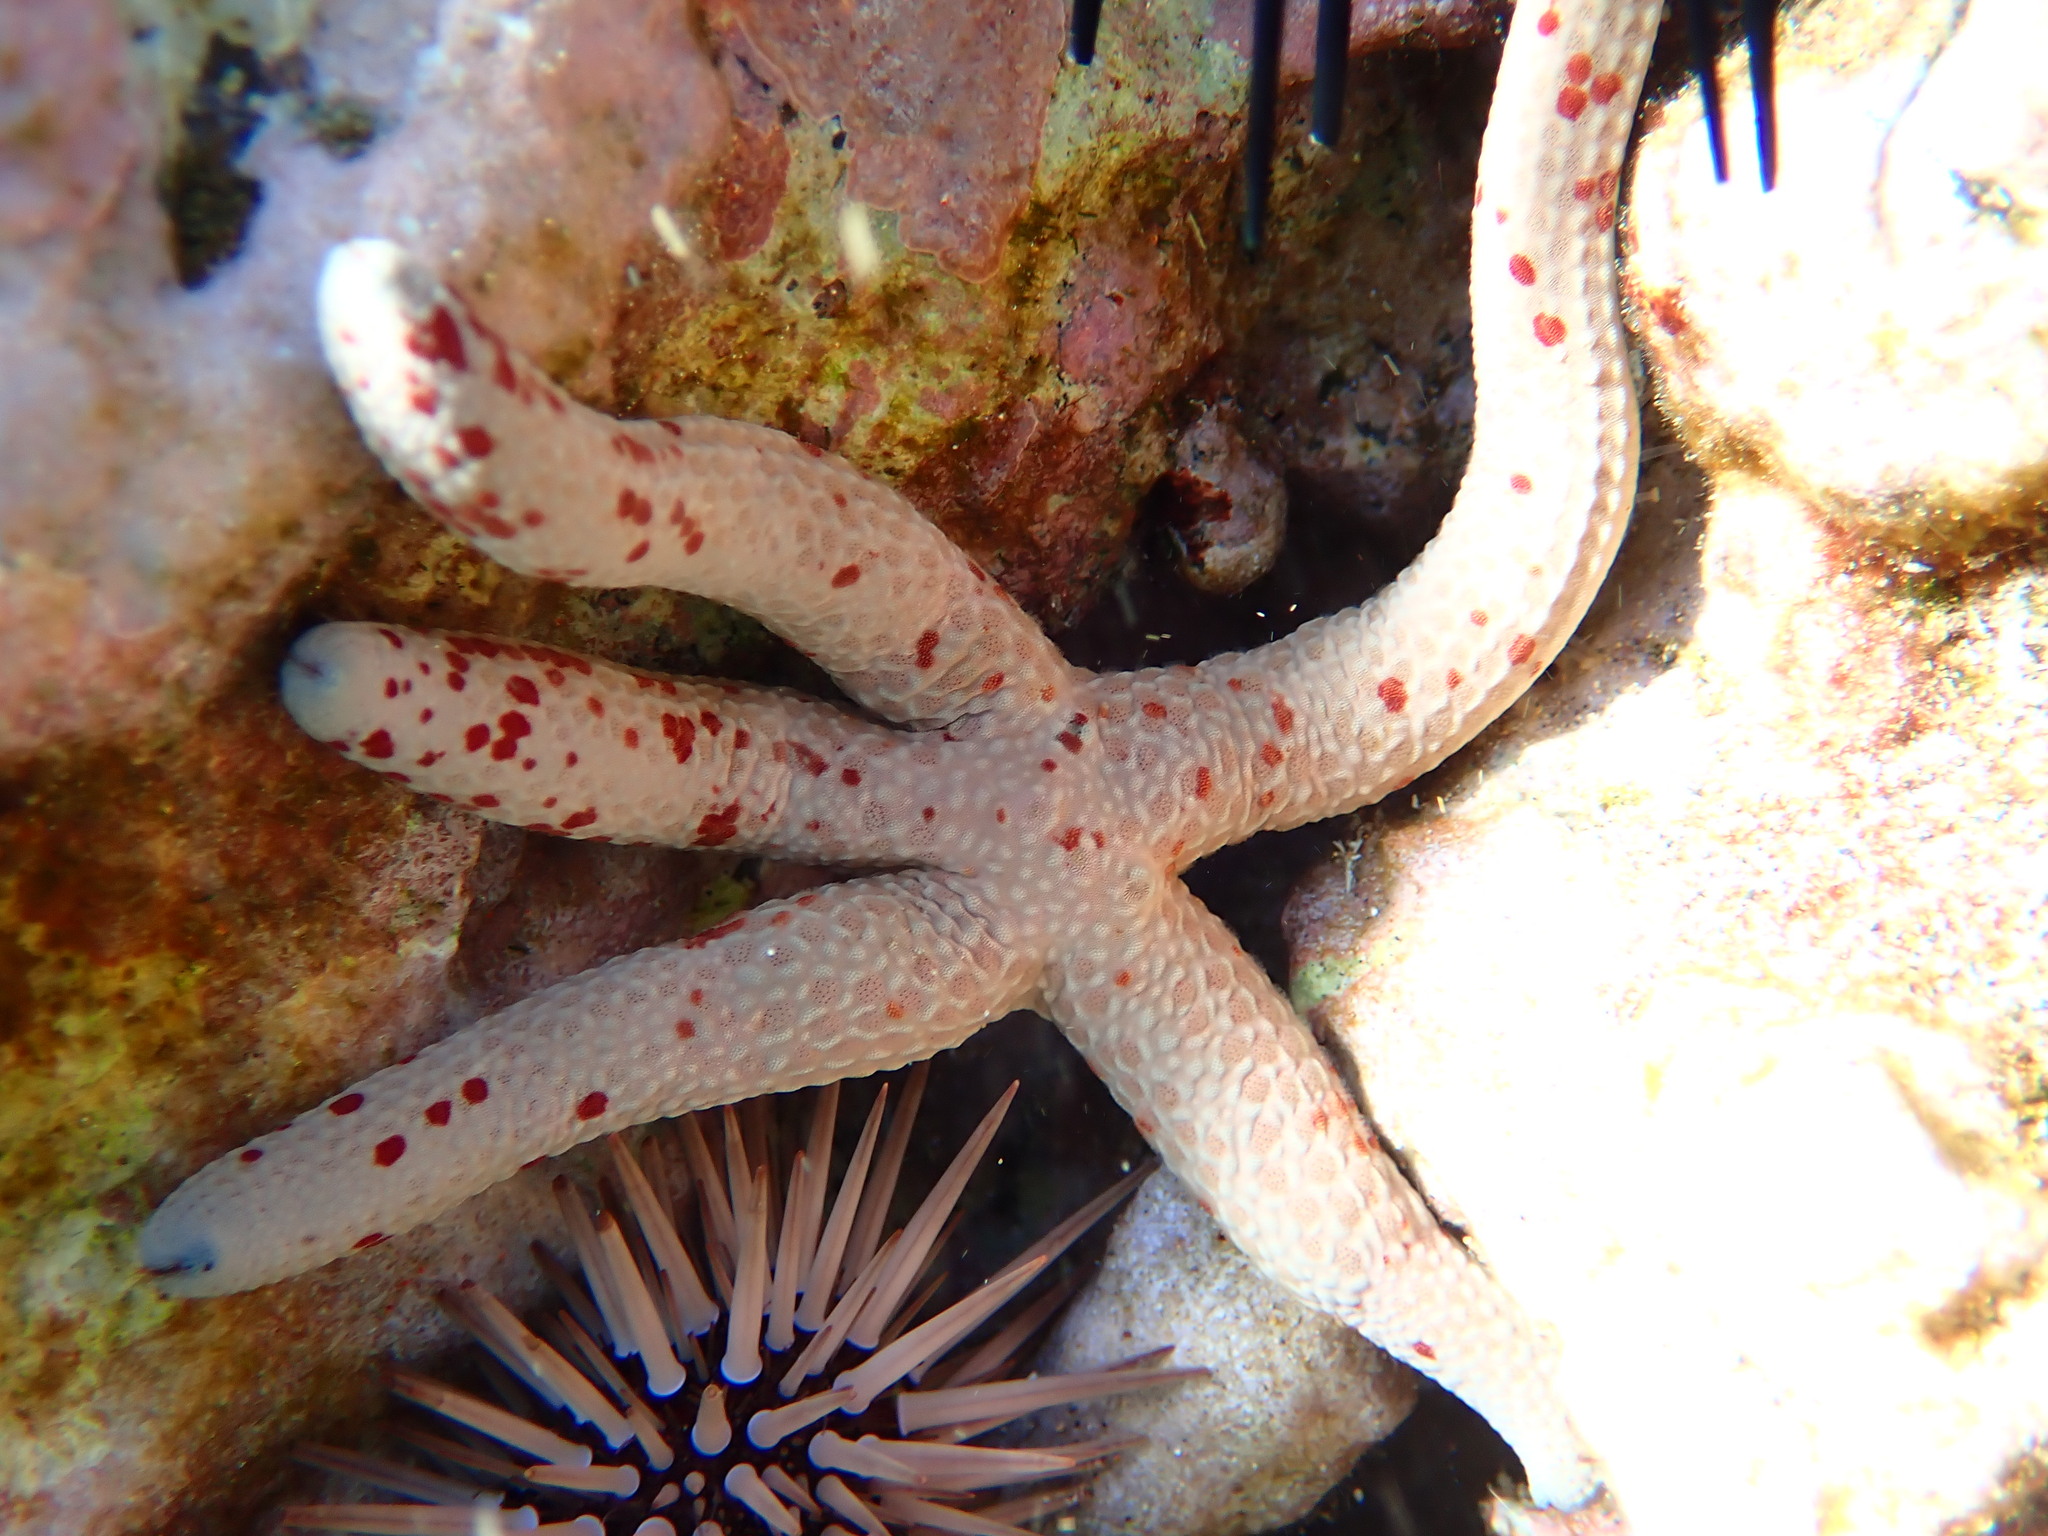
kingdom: Animalia
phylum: Echinodermata
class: Asteroidea
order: Valvatida
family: Ophidiasteridae
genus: Linckia
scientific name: Linckia multifora
